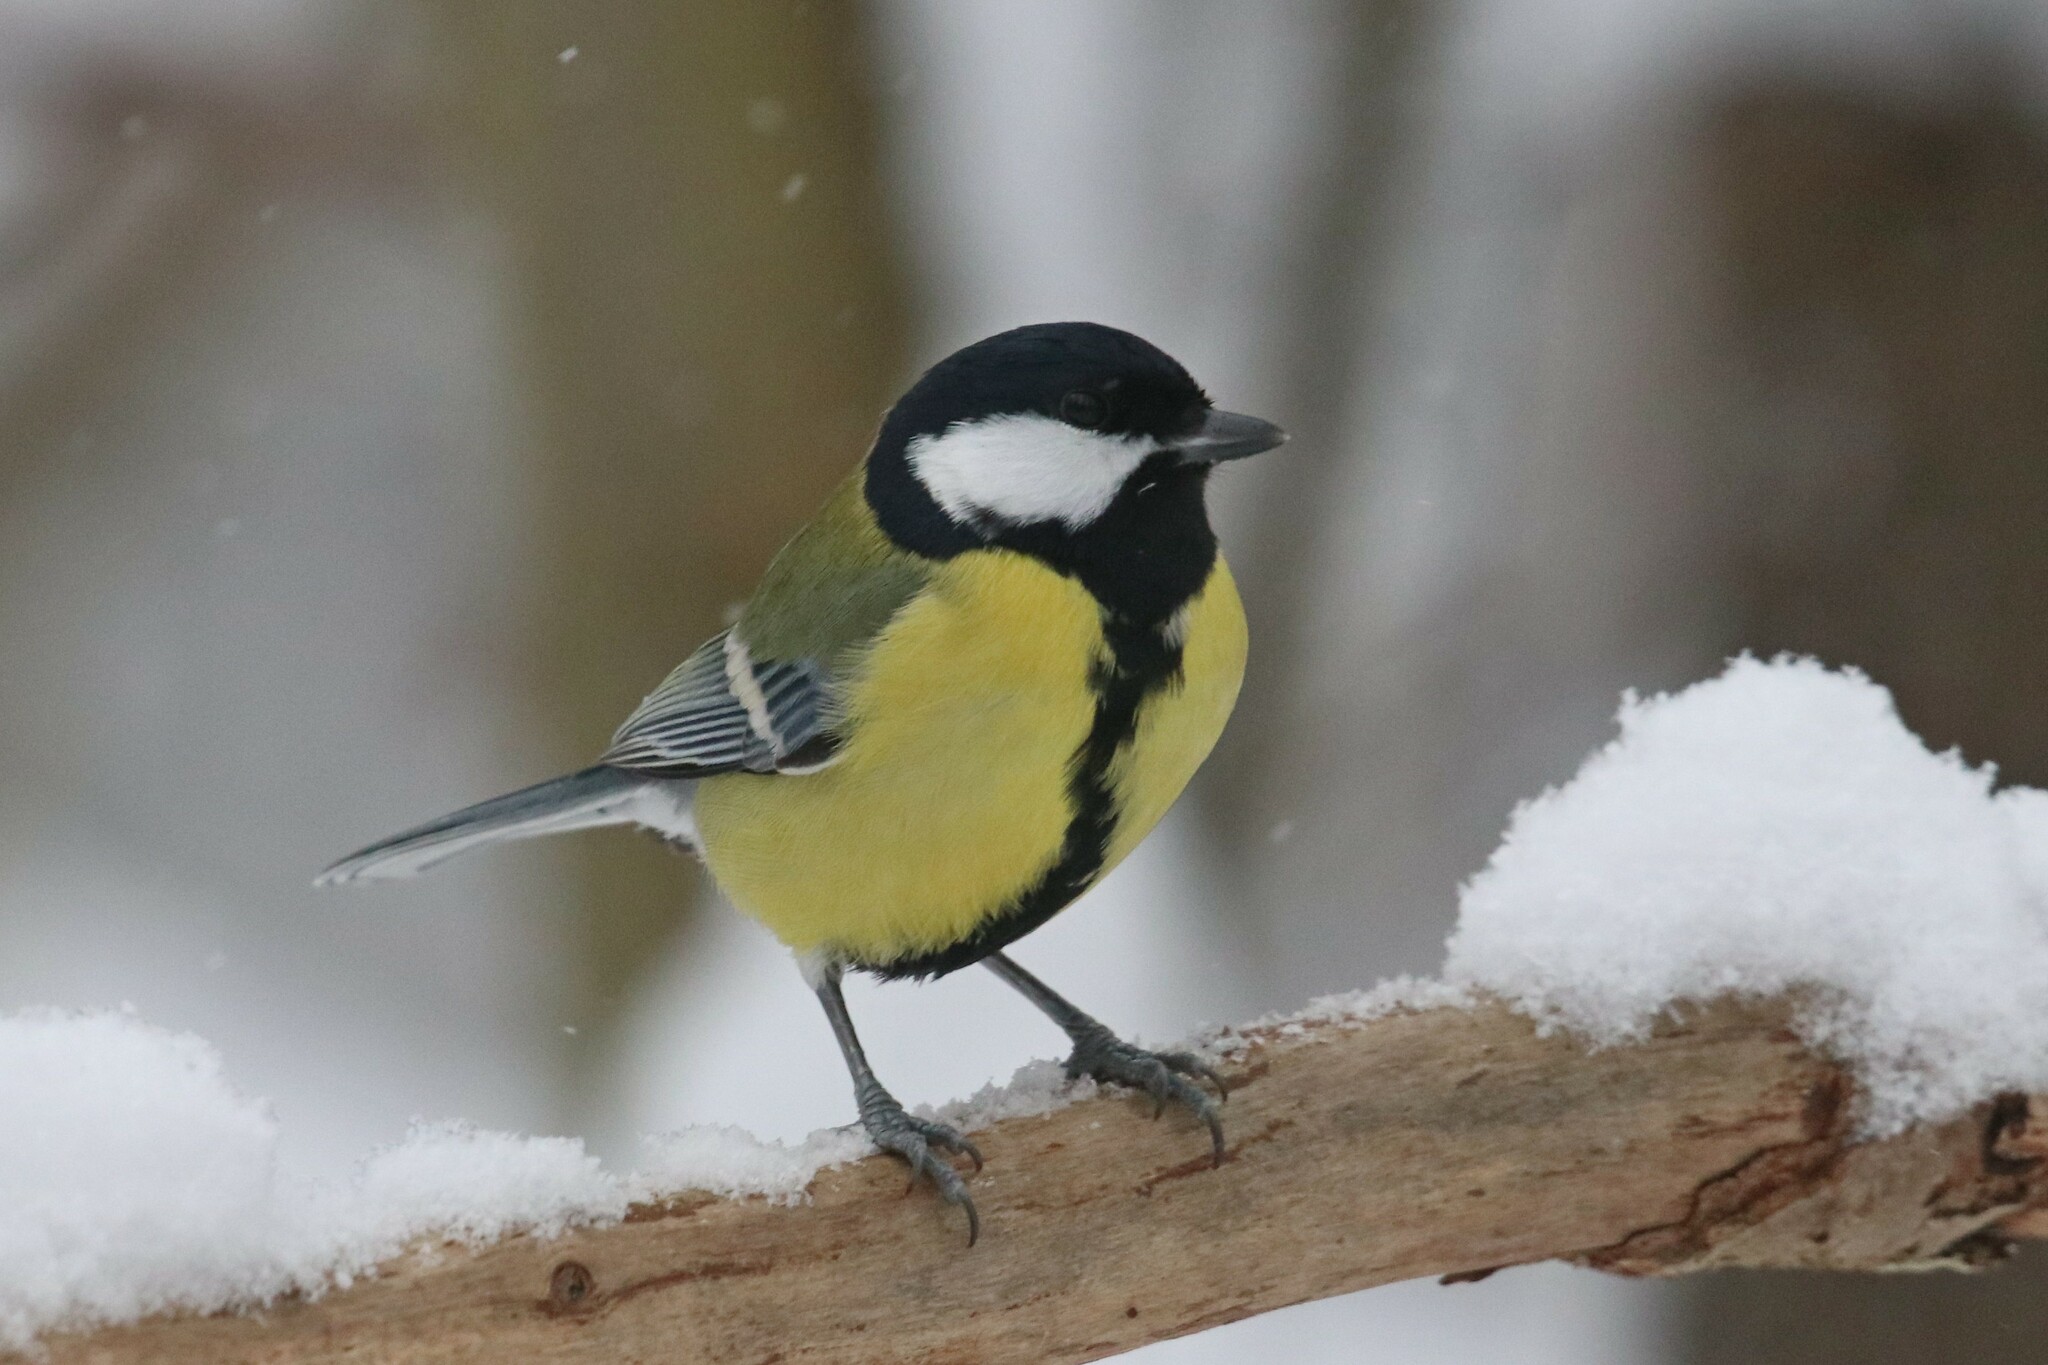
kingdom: Animalia
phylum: Chordata
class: Aves
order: Passeriformes
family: Paridae
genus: Parus
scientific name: Parus major
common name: Great tit
